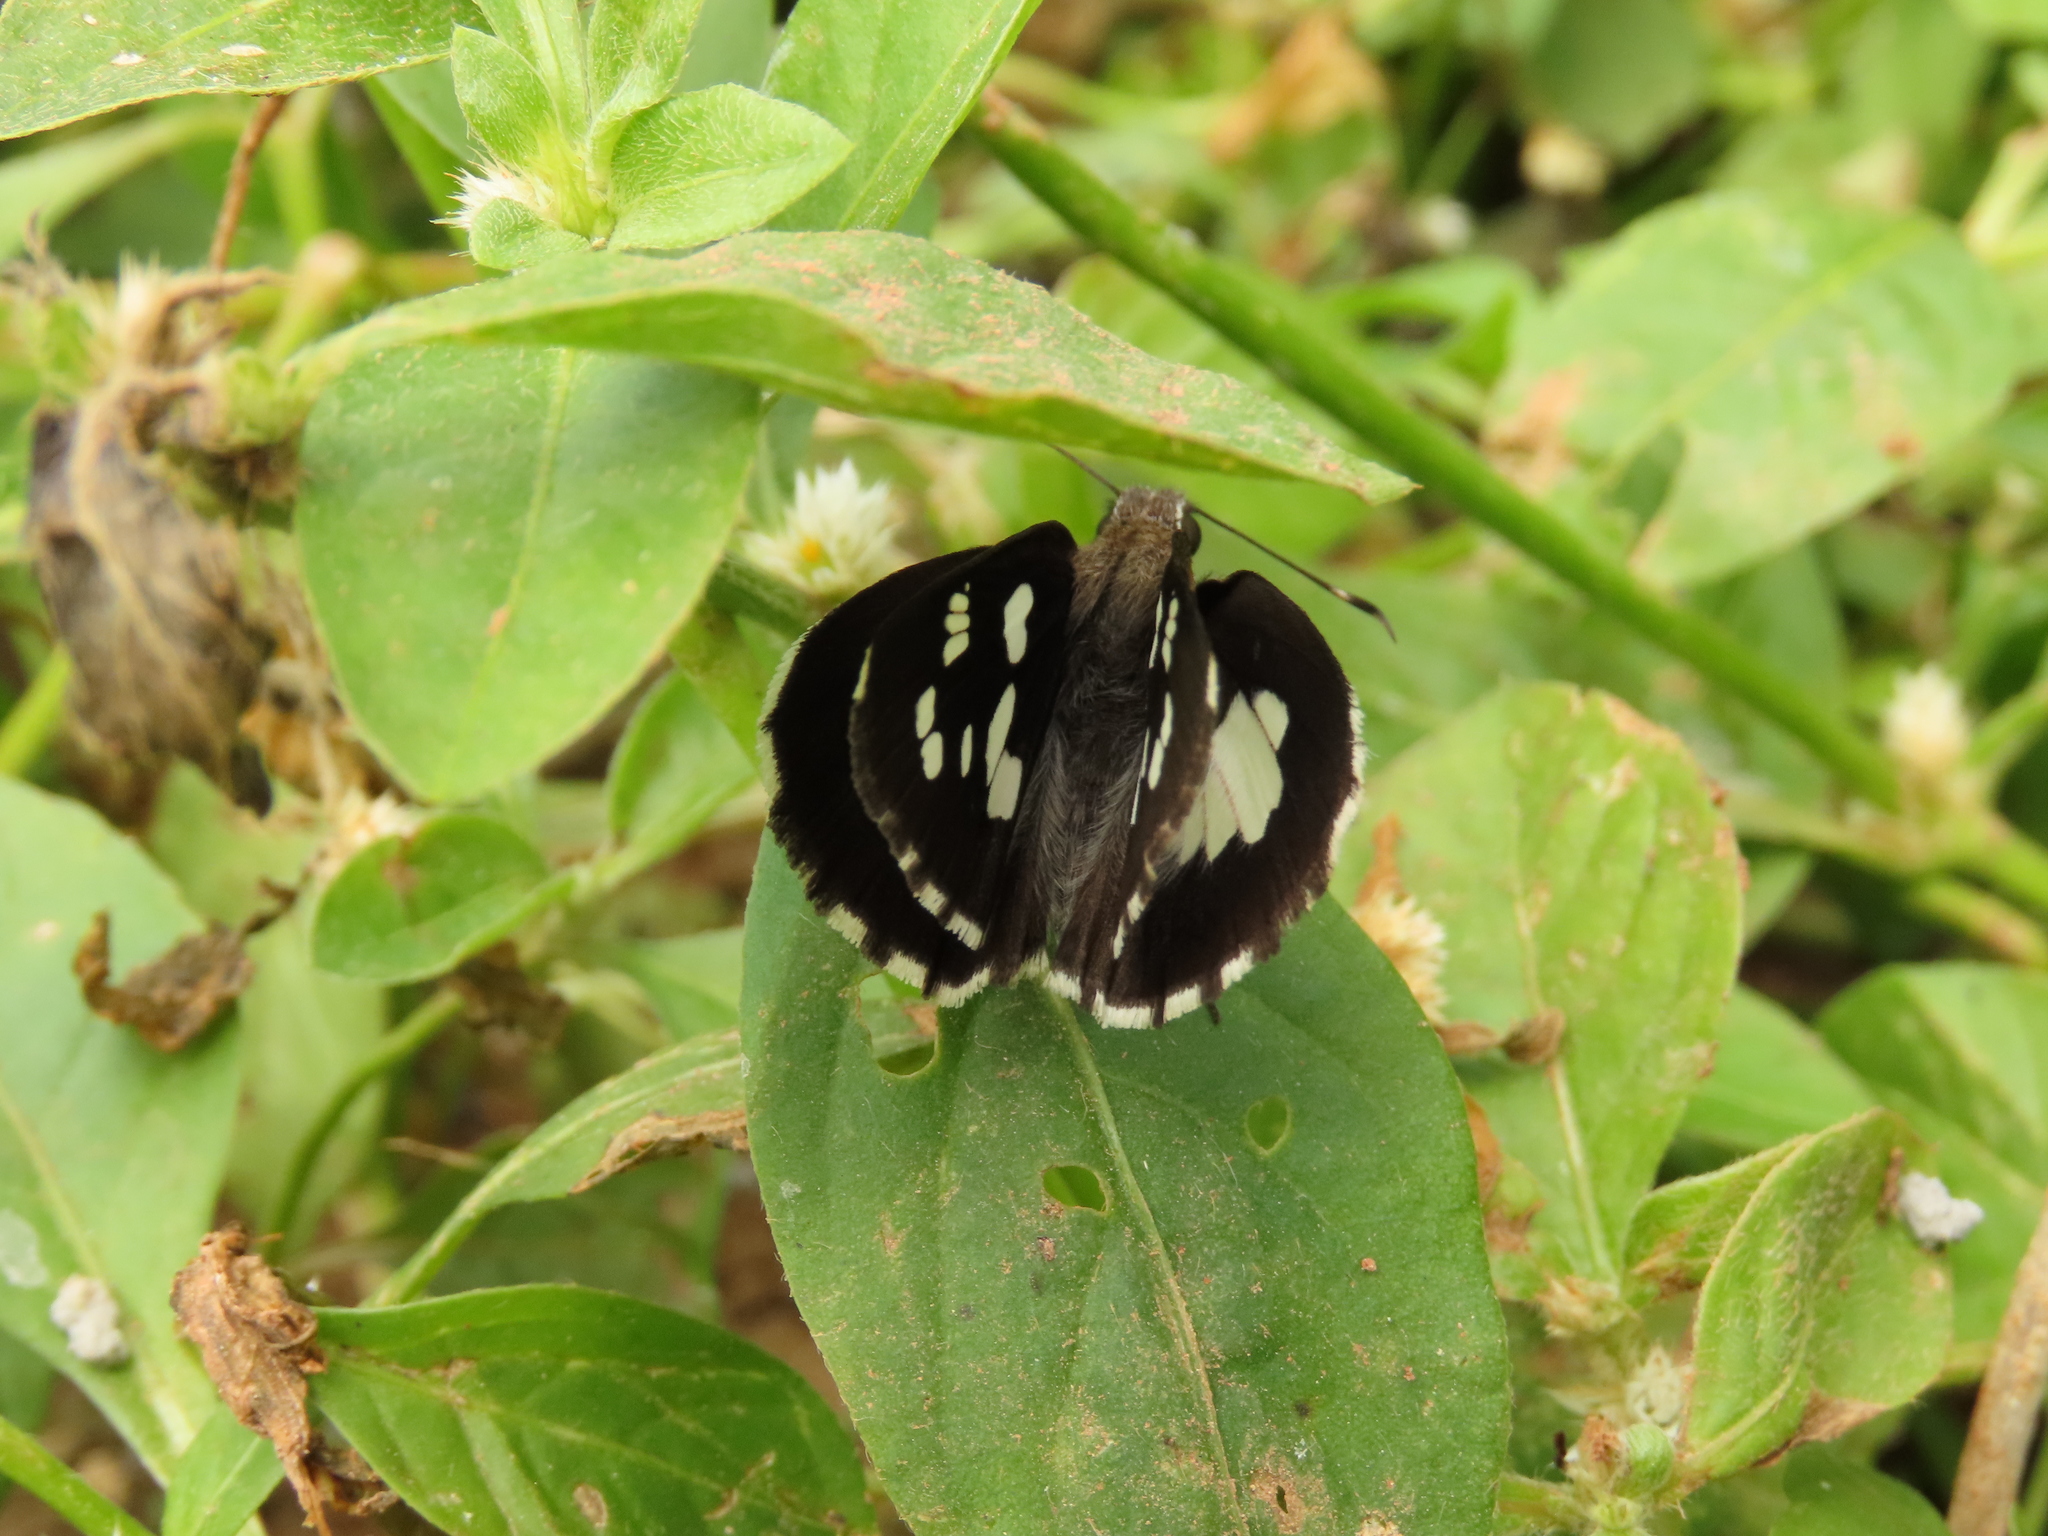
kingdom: Animalia
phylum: Arthropoda
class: Insecta
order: Lepidoptera
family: Hesperiidae
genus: Udaspes
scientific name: Udaspes folus
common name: Grass demon
